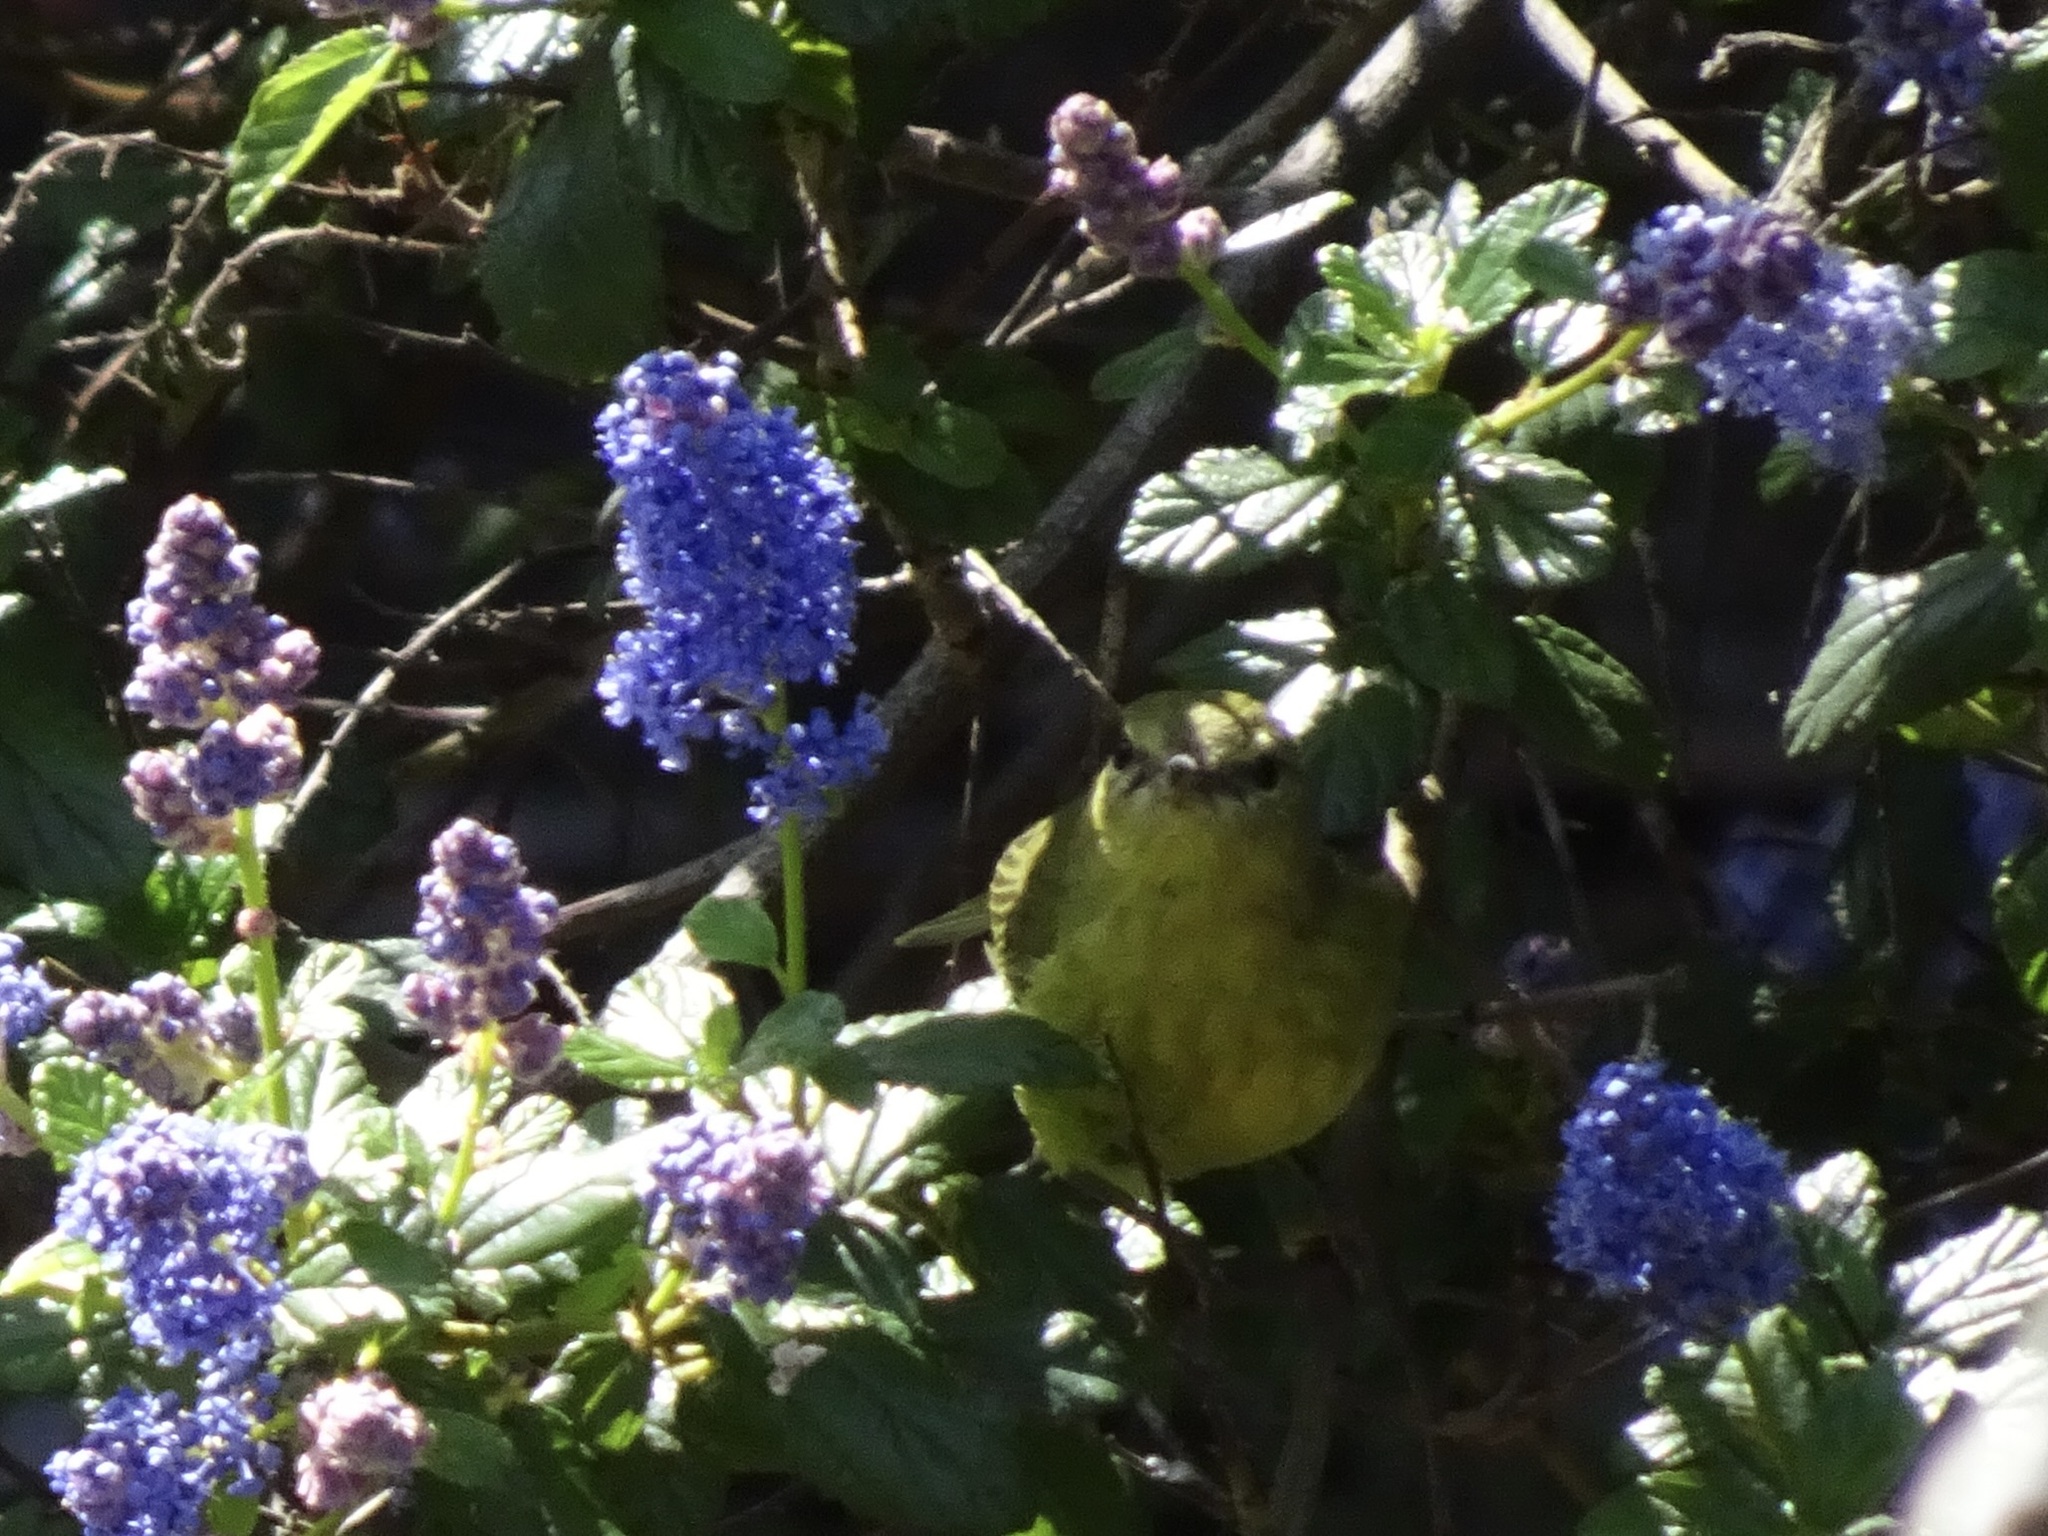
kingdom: Animalia
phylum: Chordata
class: Aves
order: Passeriformes
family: Parulidae
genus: Leiothlypis
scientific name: Leiothlypis celata
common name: Orange-crowned warbler
